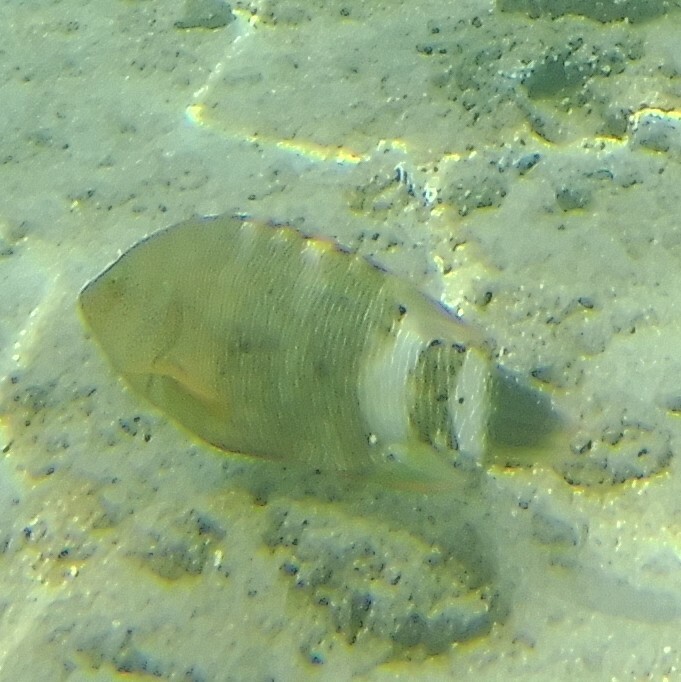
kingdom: Animalia
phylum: Chordata
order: Perciformes
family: Labridae
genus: Cheilinus
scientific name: Cheilinus trilobatus
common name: Tripletail maori wrasse
